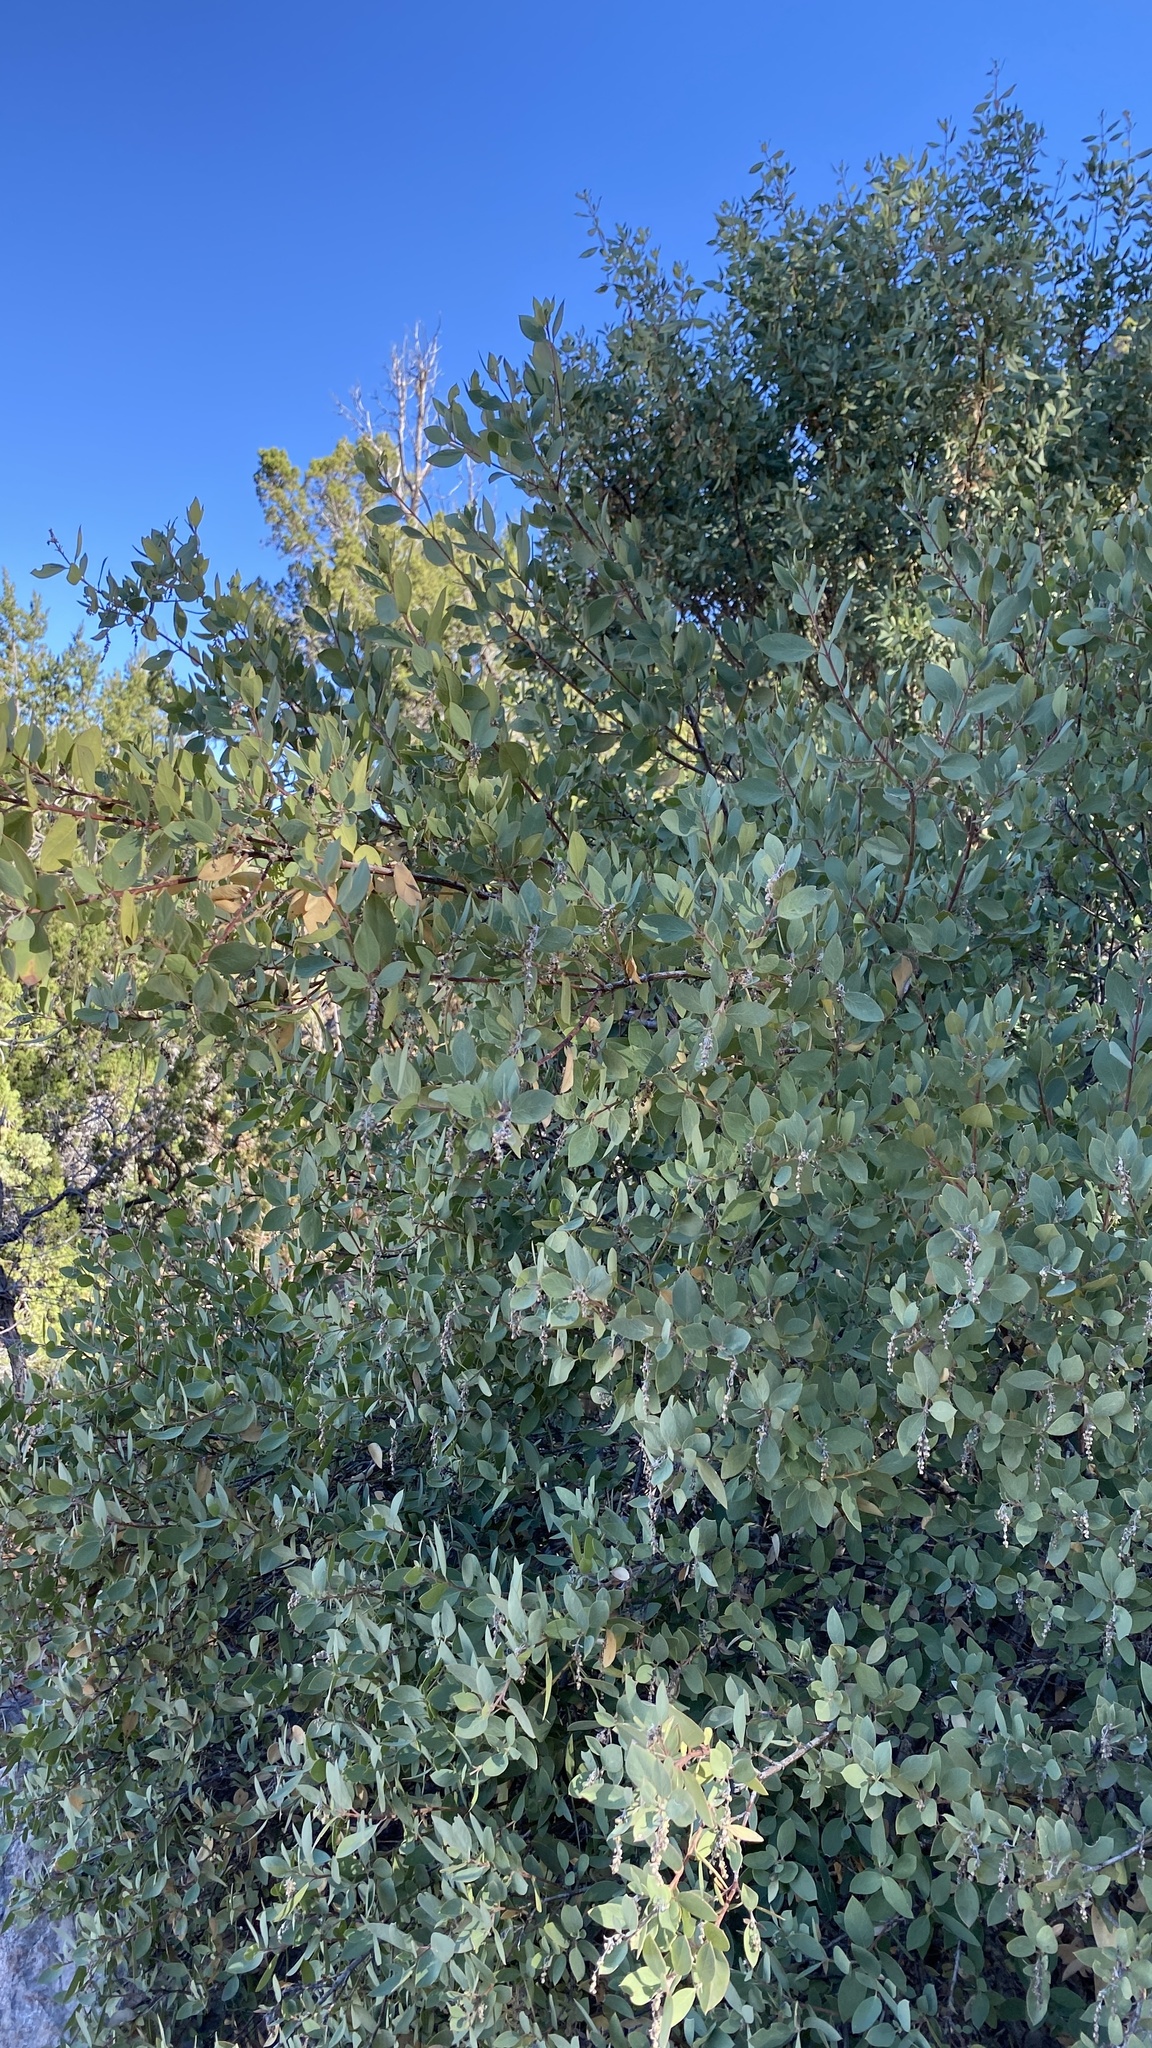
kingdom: Plantae
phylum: Tracheophyta
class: Magnoliopsida
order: Garryales
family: Garryaceae
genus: Garrya
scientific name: Garrya wrightii
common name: Wright's silktassel
